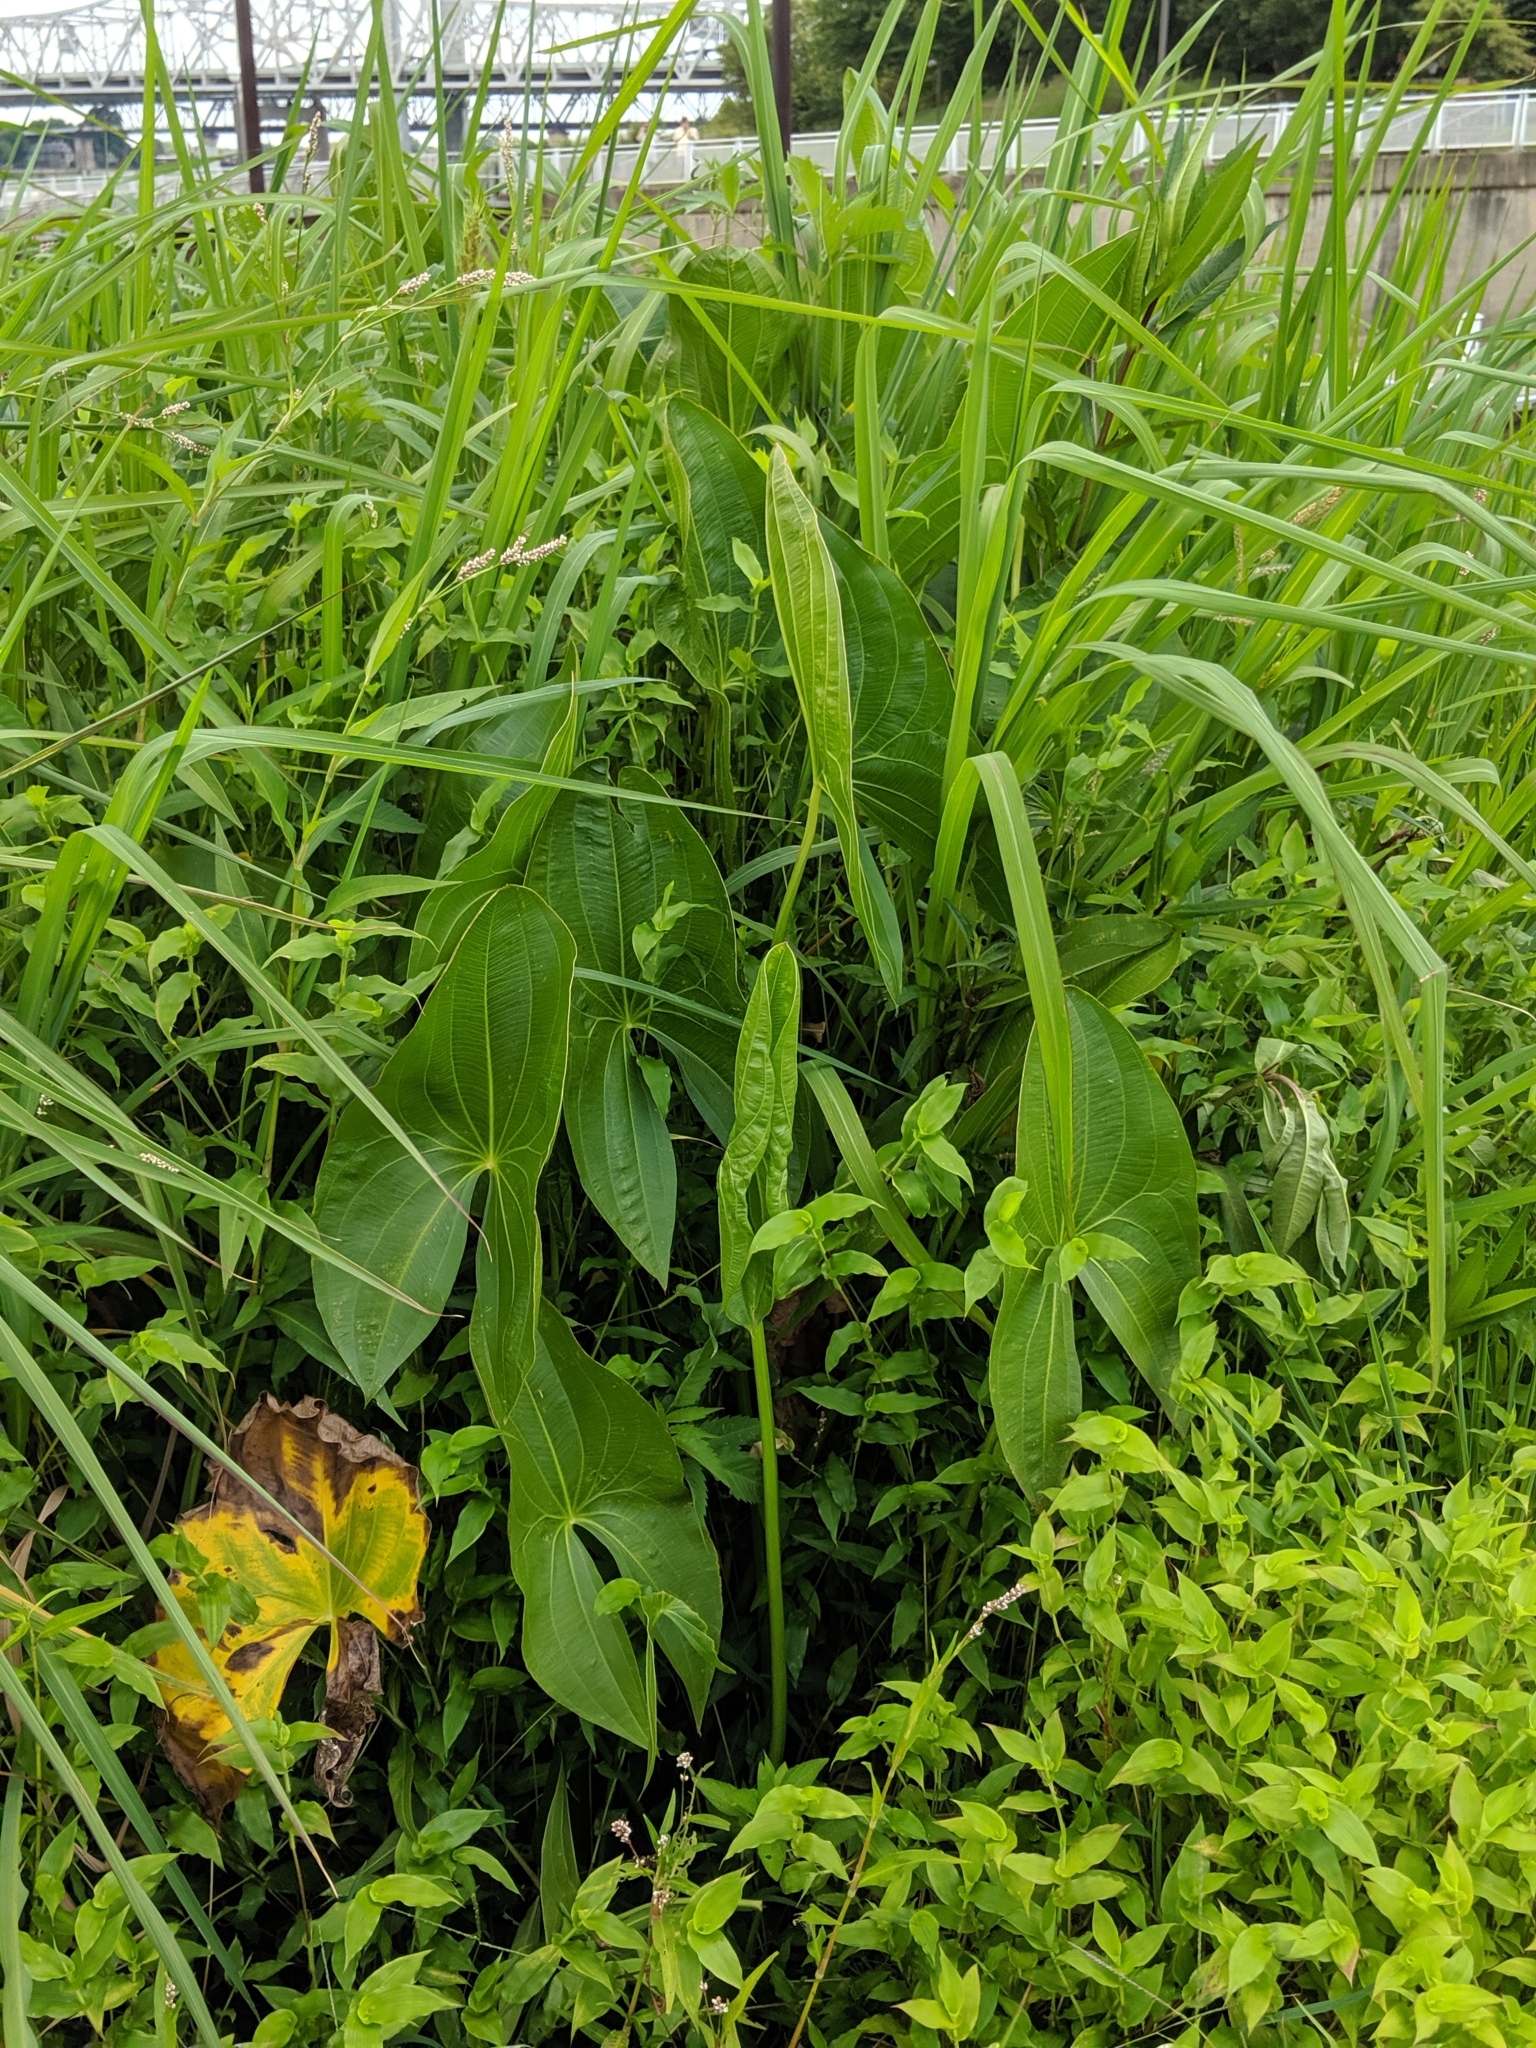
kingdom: Plantae
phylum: Tracheophyta
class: Liliopsida
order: Alismatales
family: Alismataceae
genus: Sagittaria
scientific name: Sagittaria latifolia
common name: Duck-potato
